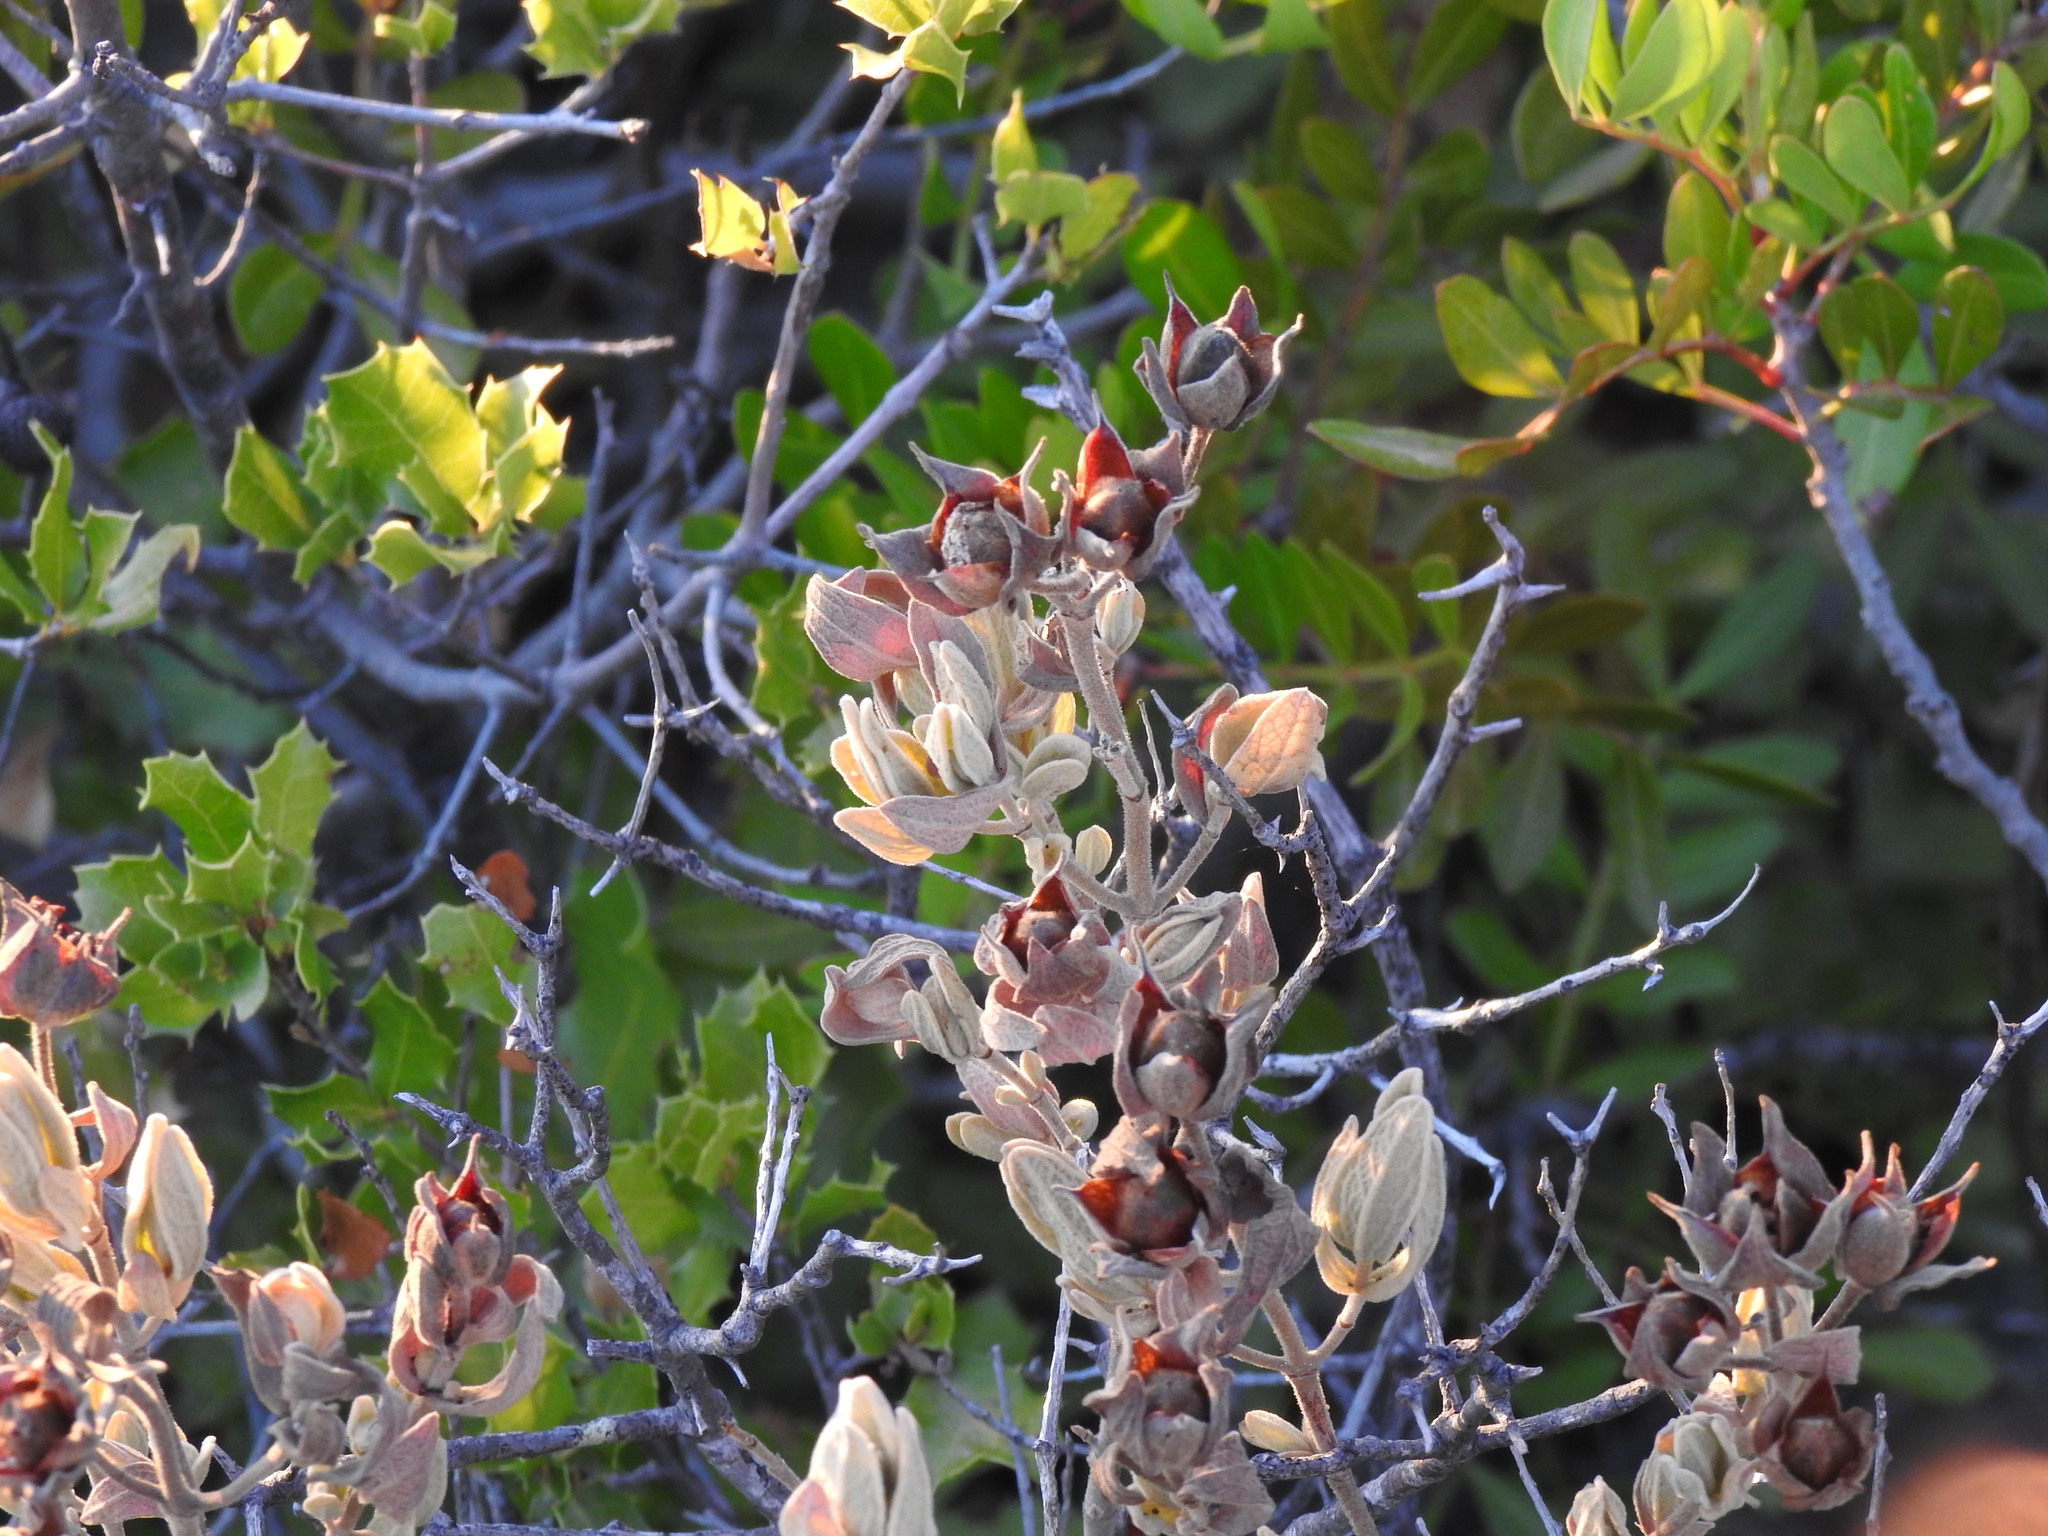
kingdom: Plantae
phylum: Tracheophyta
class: Magnoliopsida
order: Malvales
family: Cistaceae
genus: Cistus
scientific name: Cistus albidus
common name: White-leaf rock-rose
